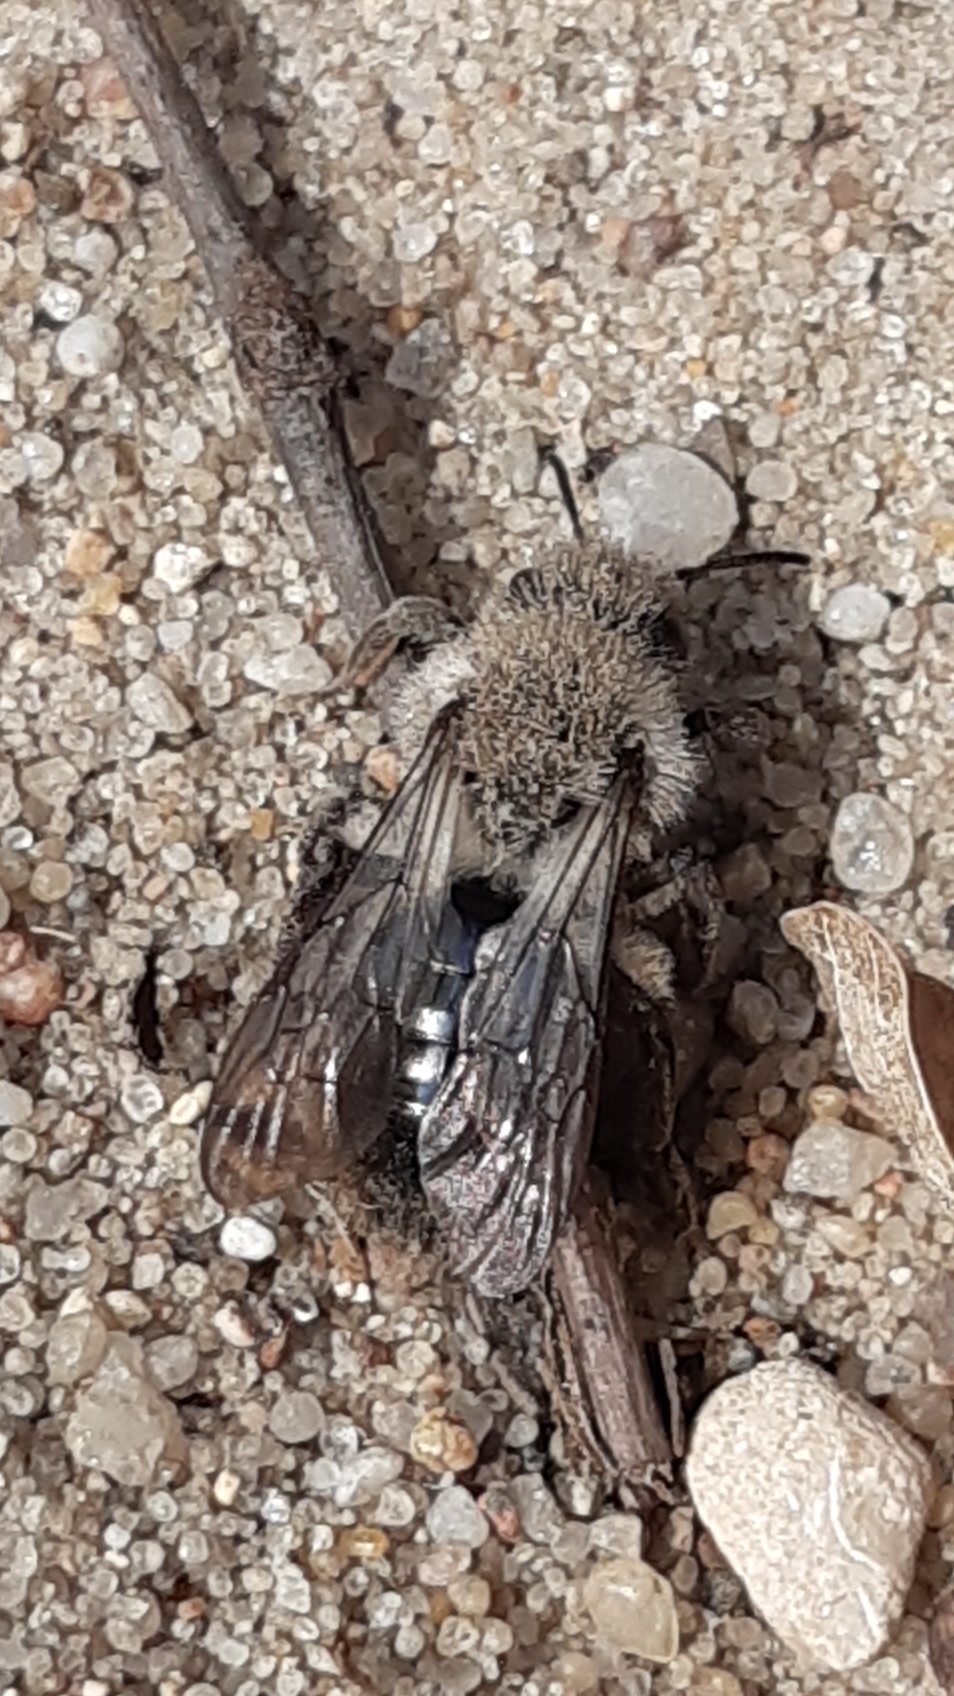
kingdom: Animalia
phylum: Arthropoda
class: Insecta
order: Hymenoptera
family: Andrenidae
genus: Andrena
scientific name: Andrena vaga
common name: Grey-backed mining bee
